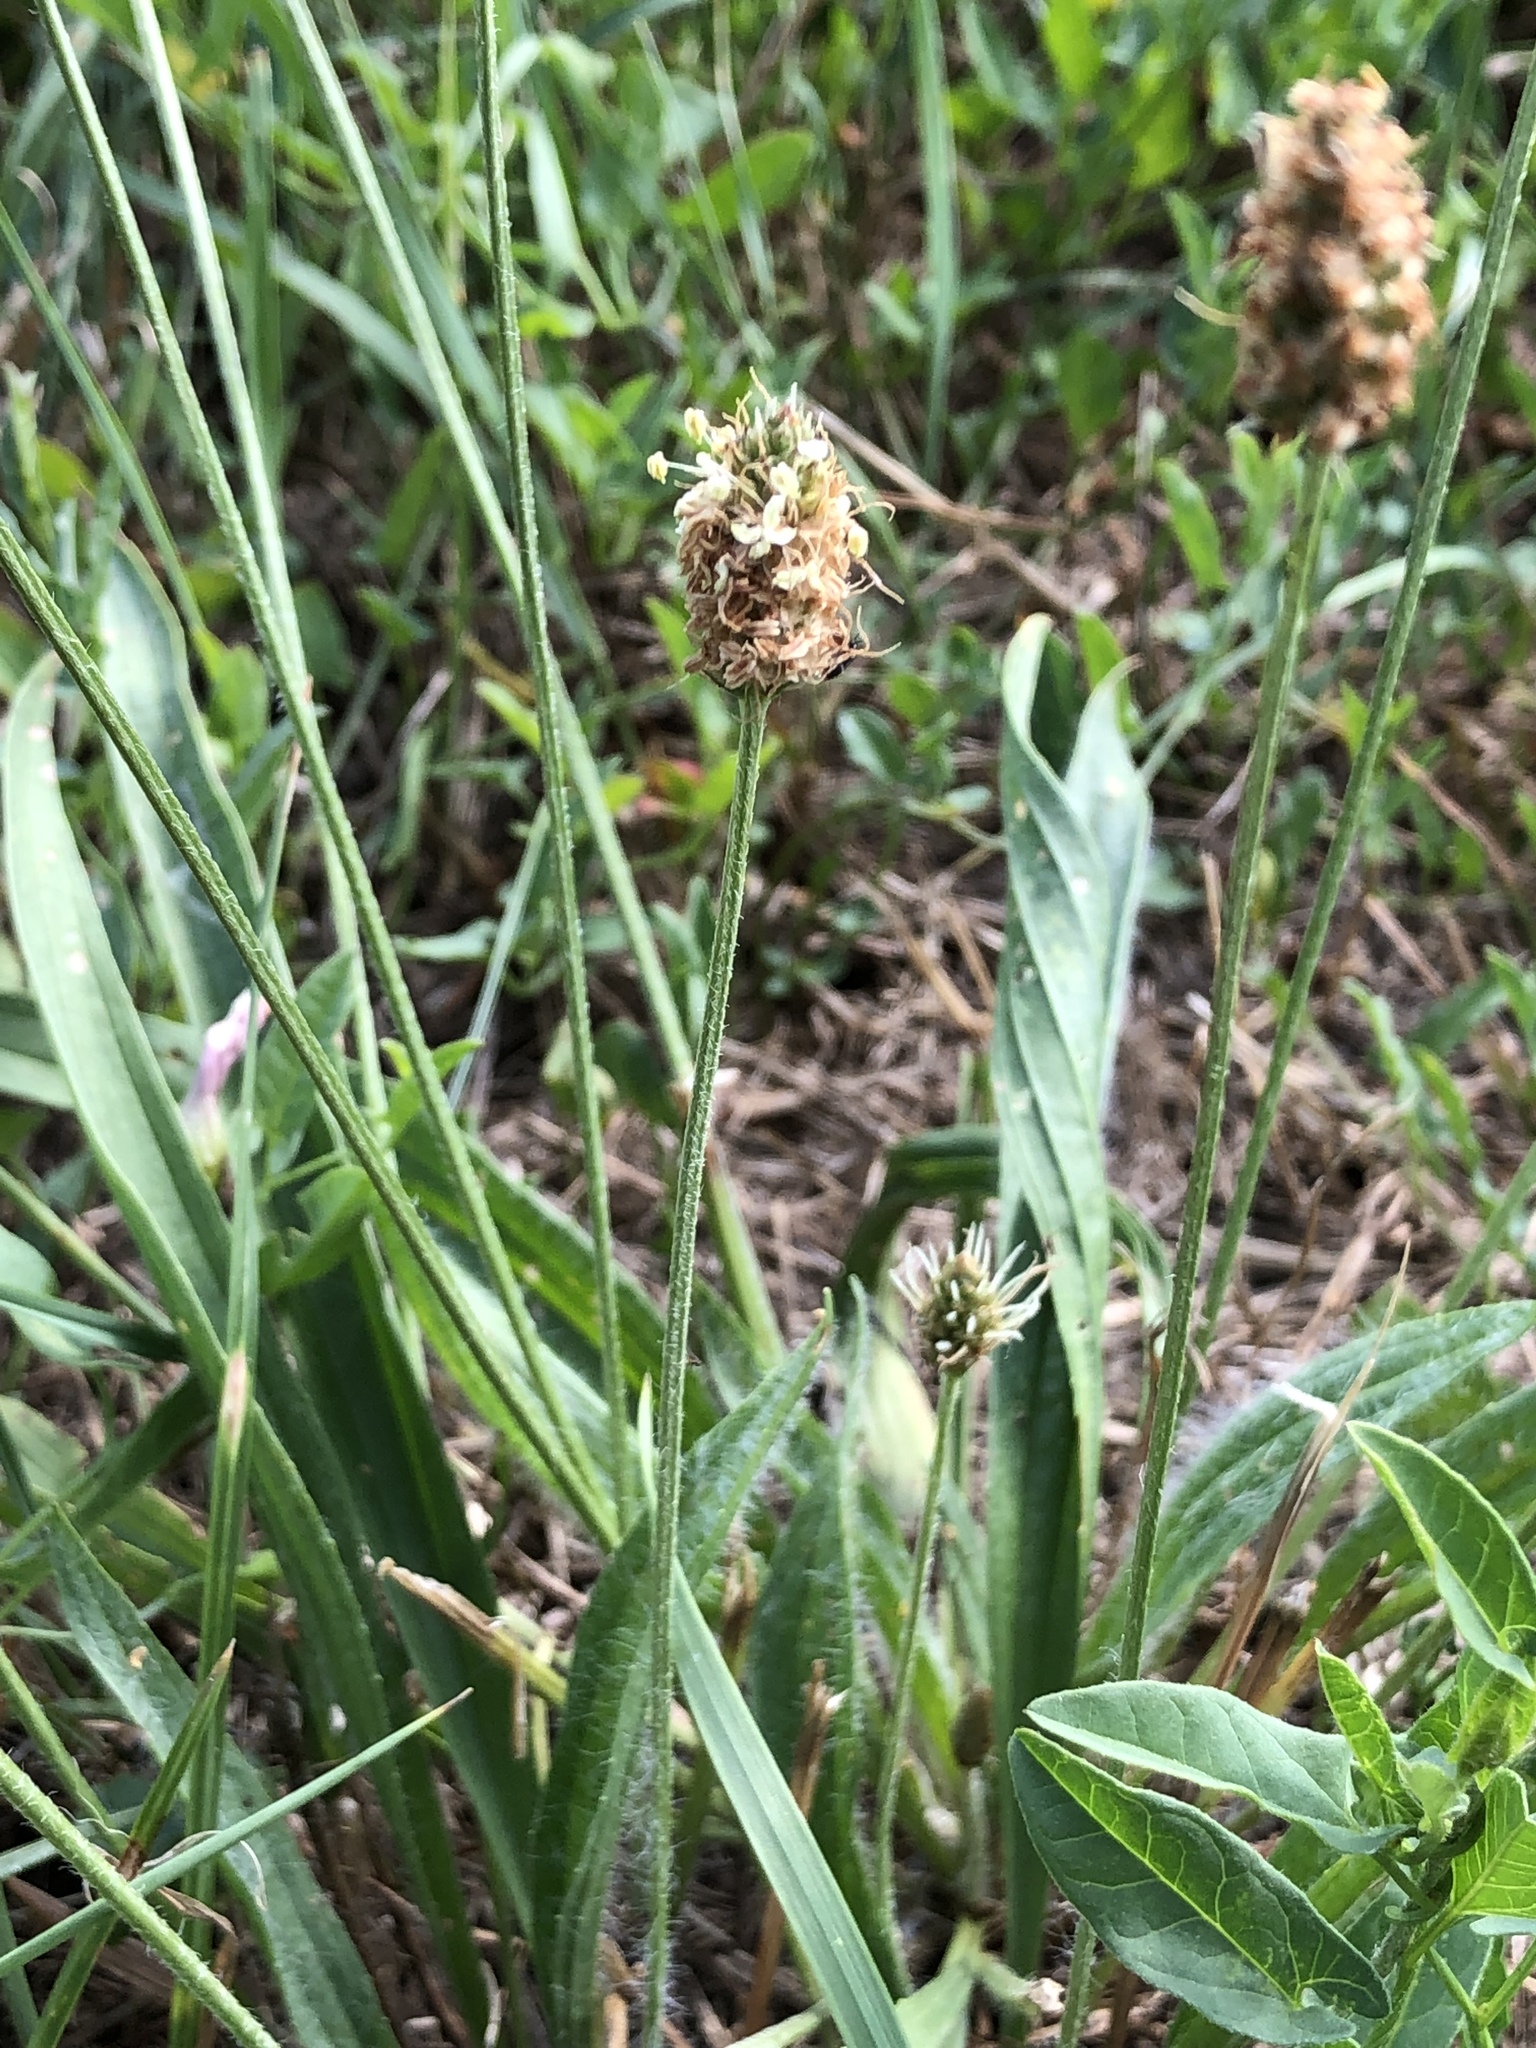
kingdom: Plantae
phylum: Tracheophyta
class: Magnoliopsida
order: Lamiales
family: Plantaginaceae
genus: Plantago
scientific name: Plantago lanceolata
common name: Ribwort plantain
